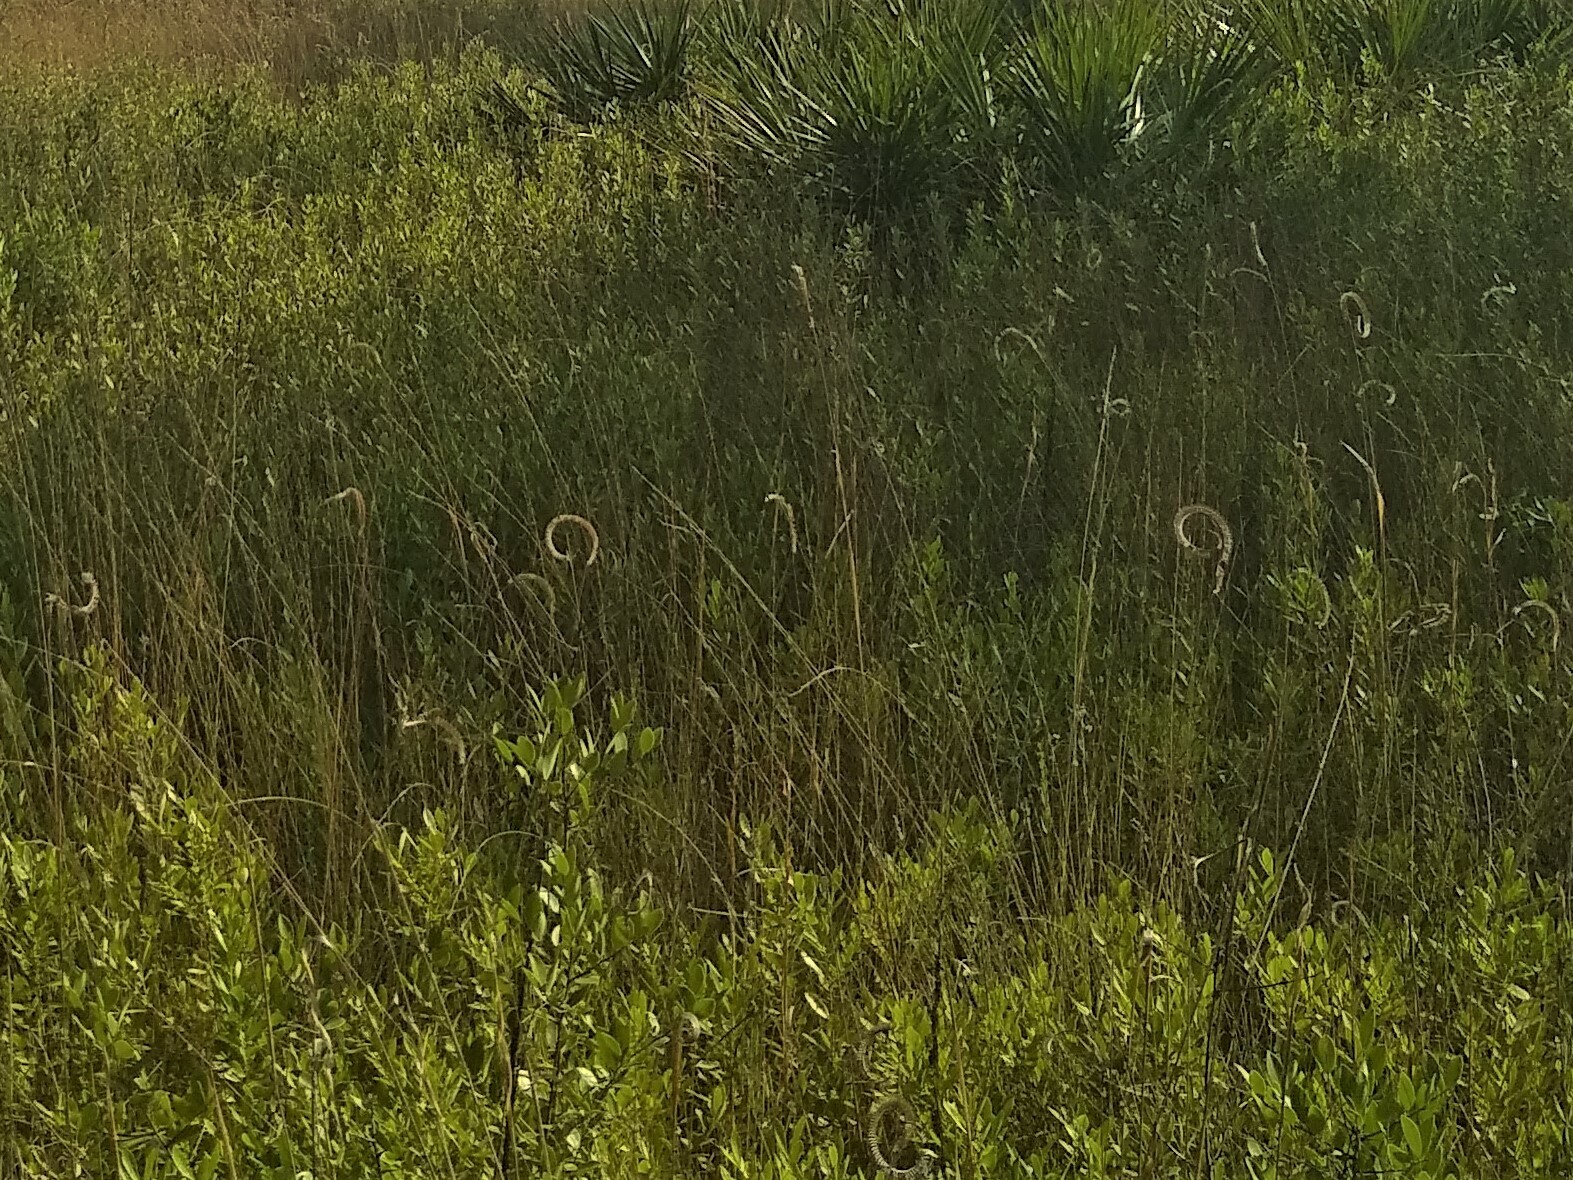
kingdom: Plantae
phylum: Tracheophyta
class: Liliopsida
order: Poales
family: Poaceae
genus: Ctenium
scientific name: Ctenium aromaticum
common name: Toothache grass
